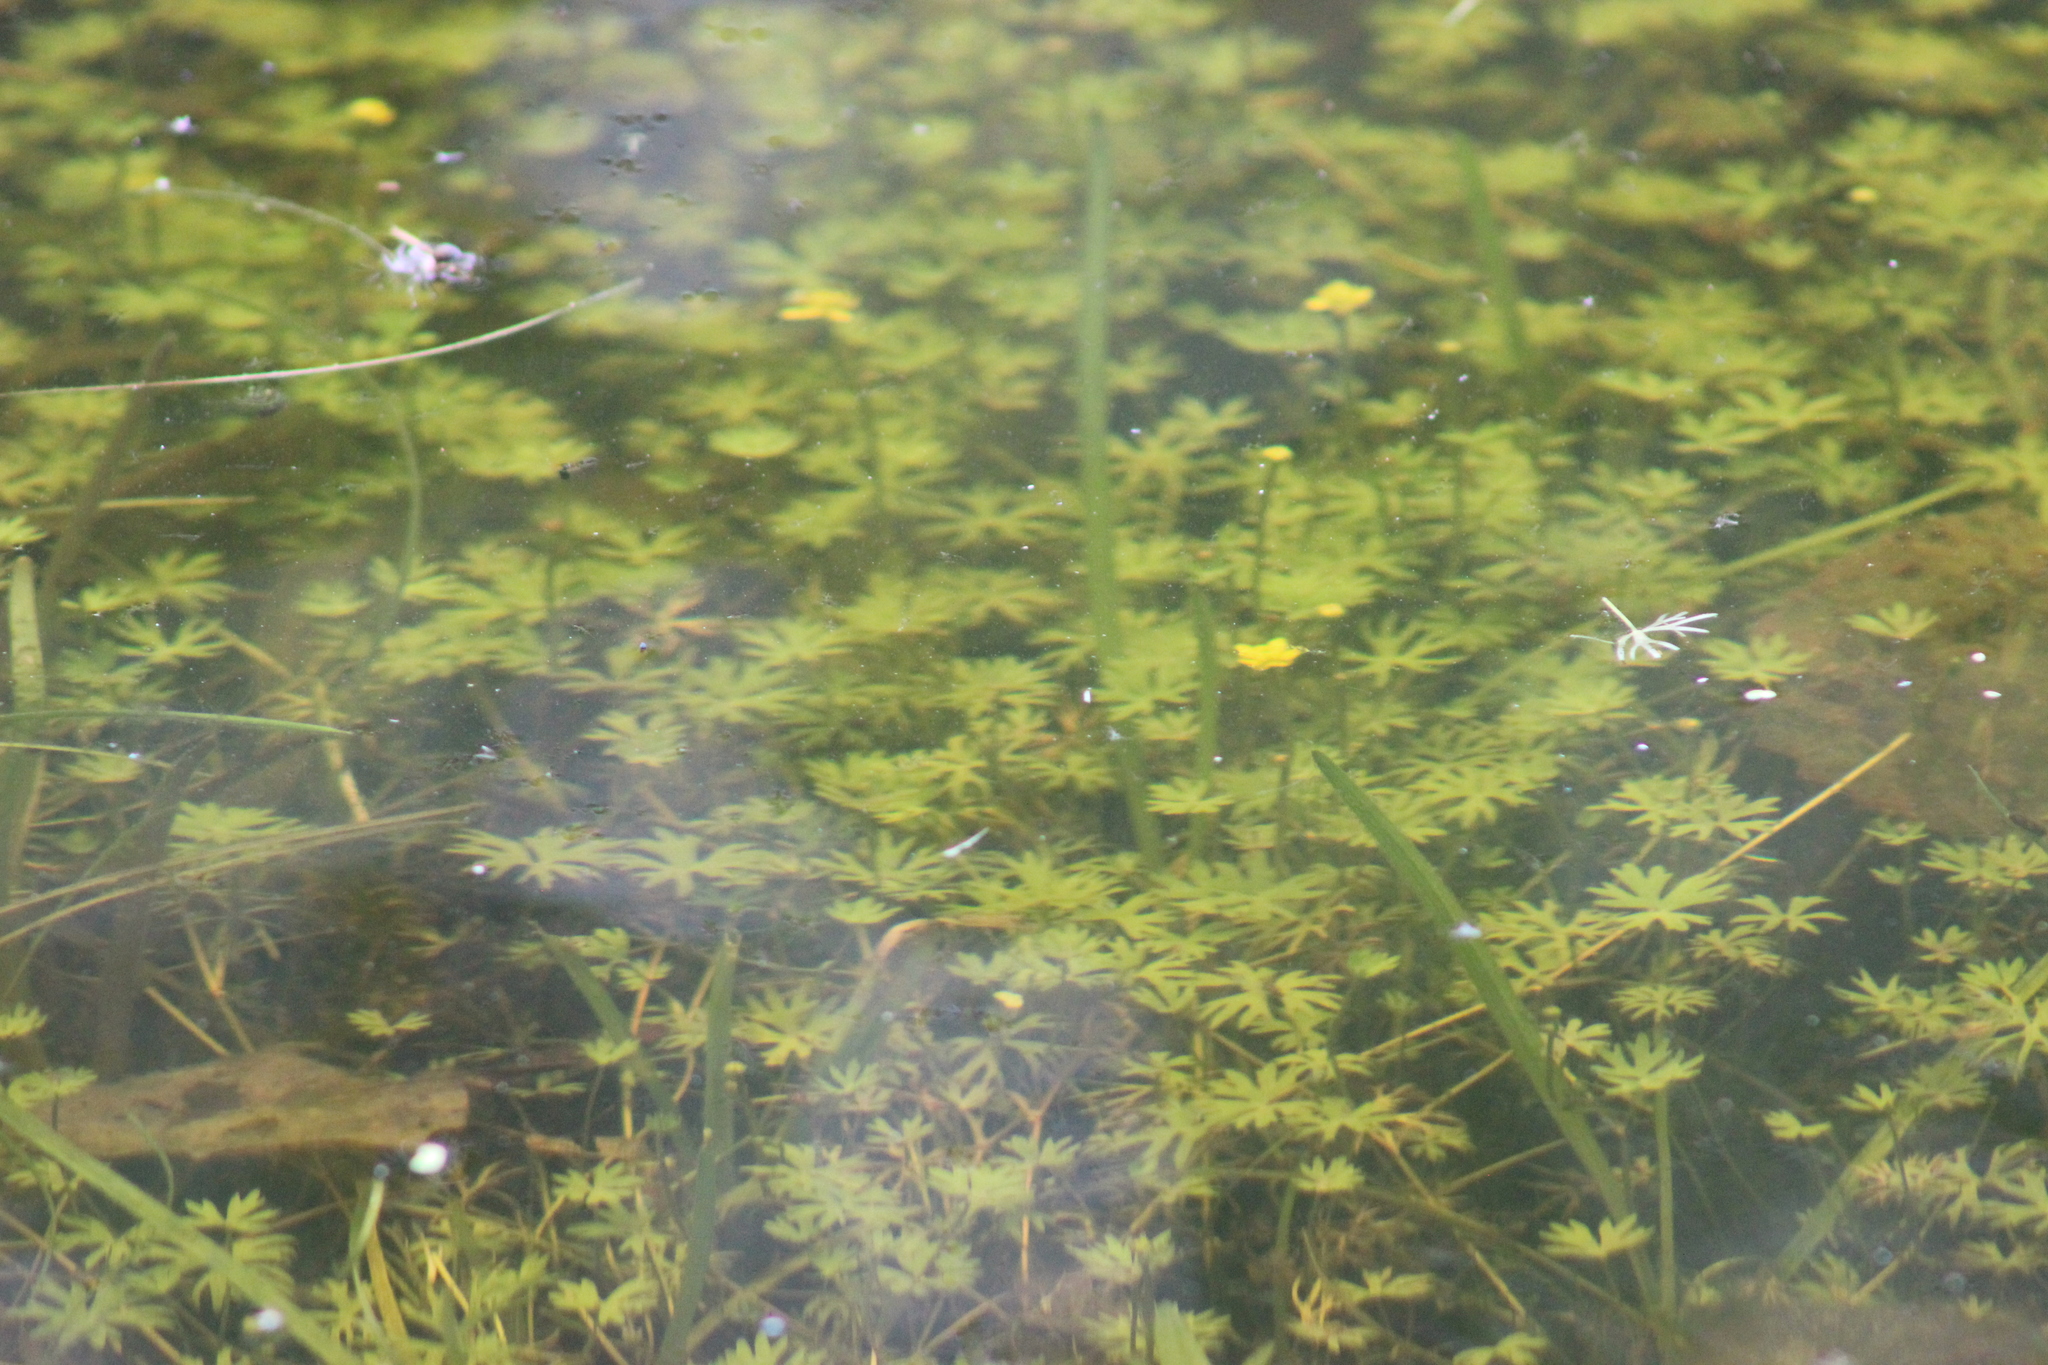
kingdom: Plantae
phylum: Tracheophyta
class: Magnoliopsida
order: Ranunculales
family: Ranunculaceae
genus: Ranunculus
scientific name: Ranunculus gmelinii
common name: Gmelin's buttercup
